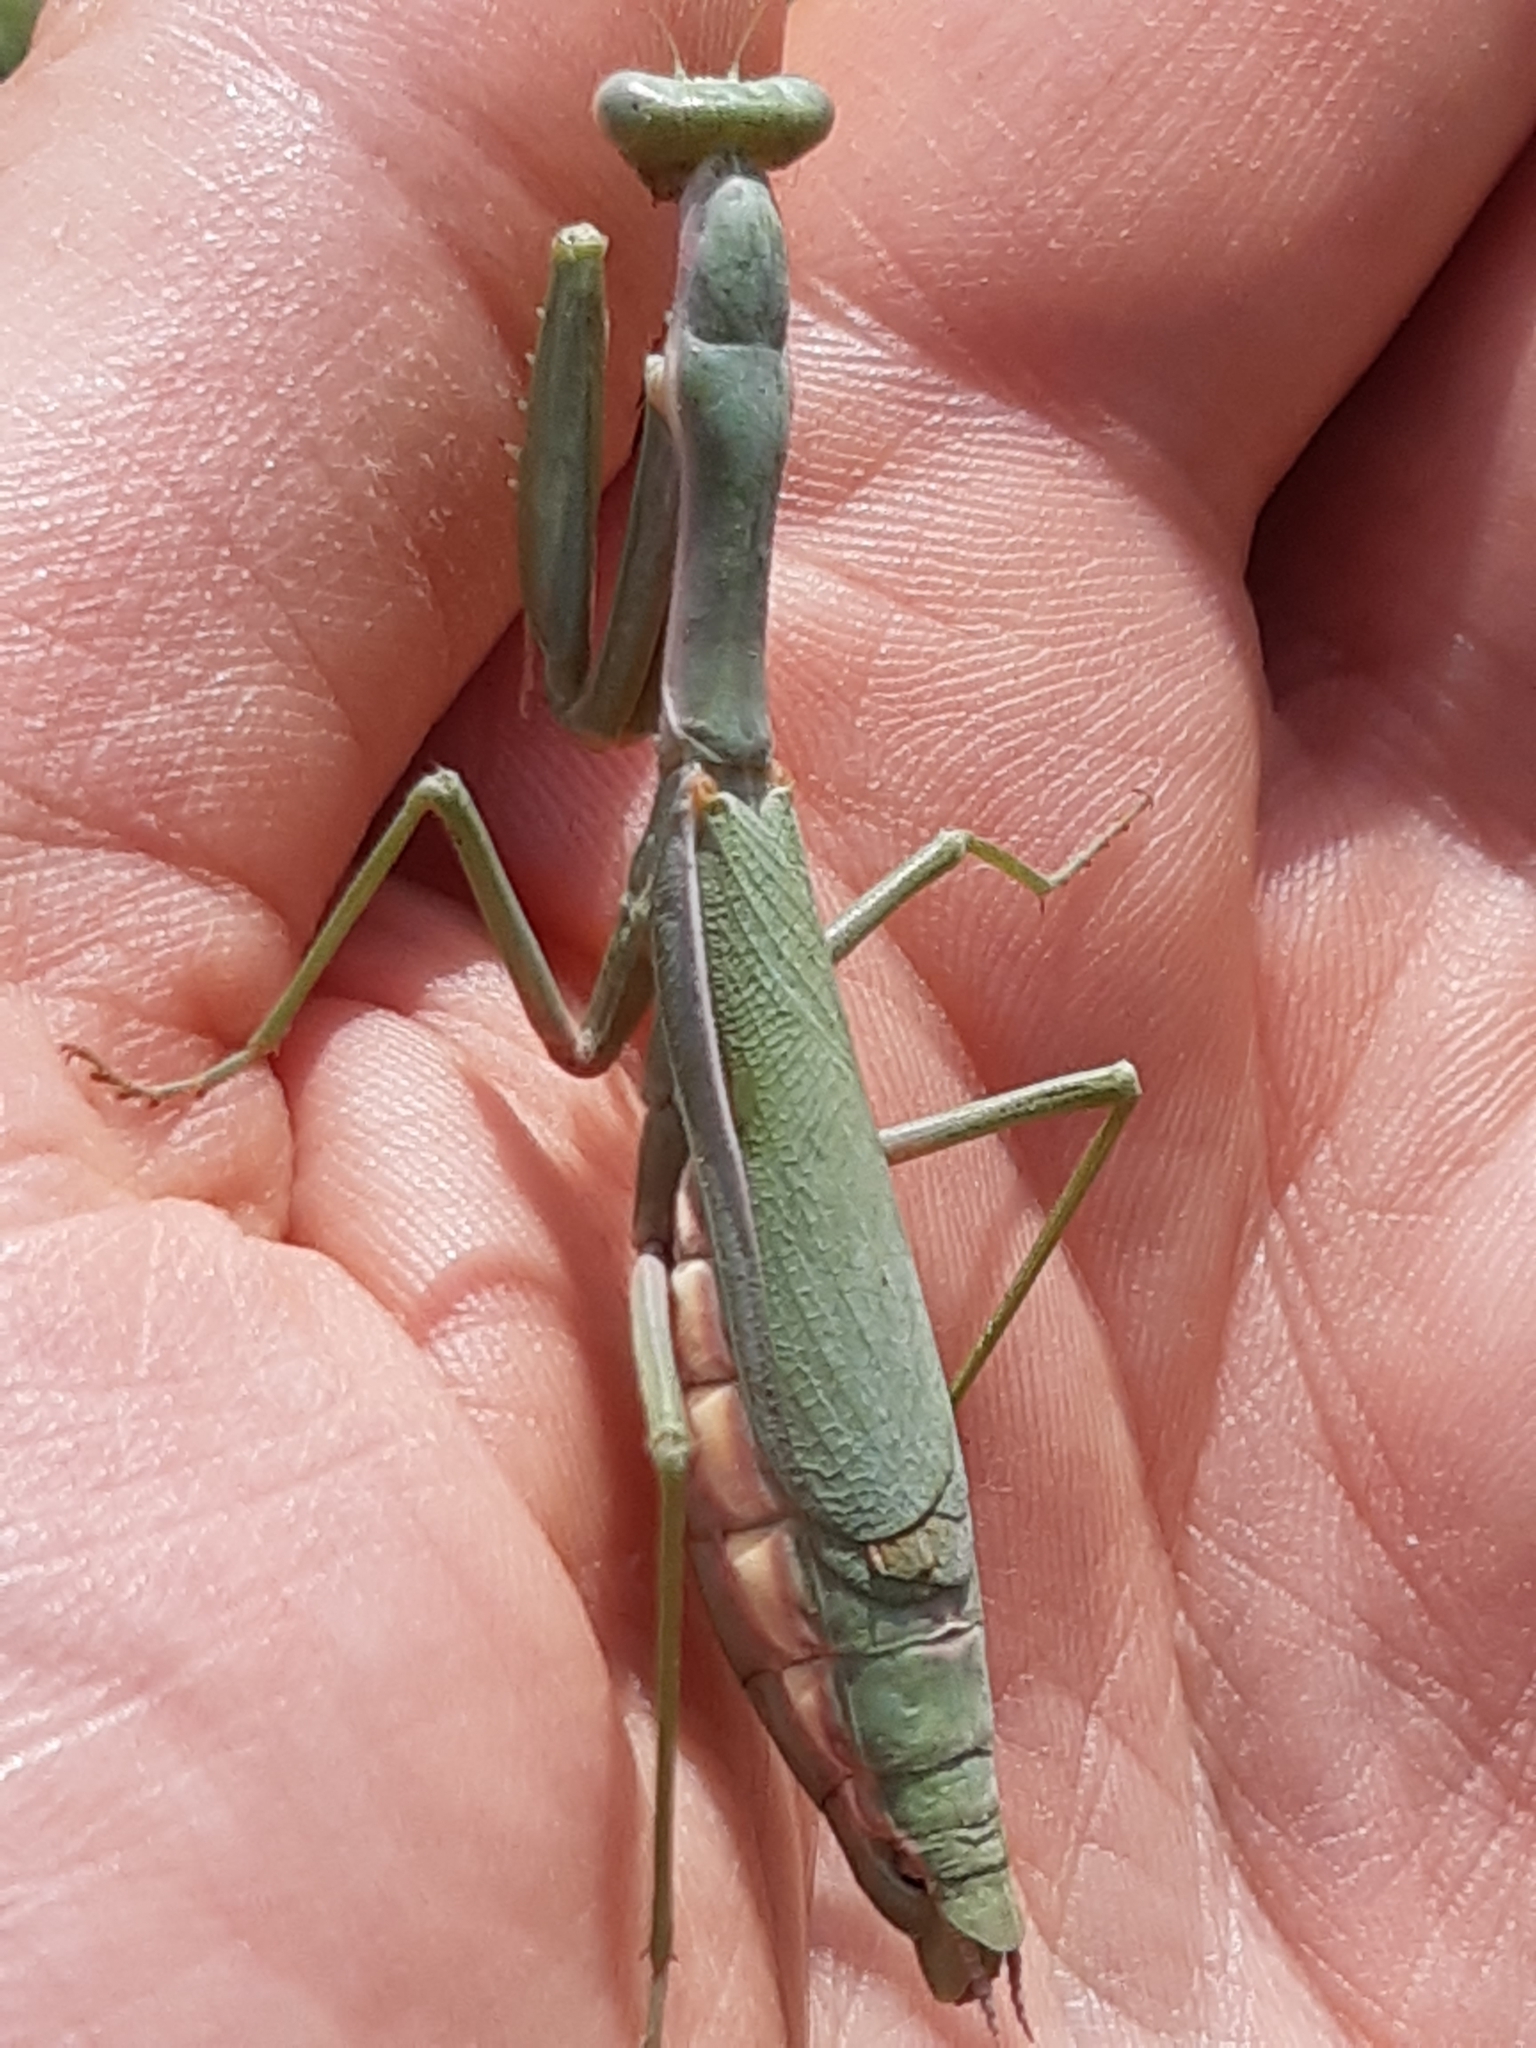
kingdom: Animalia
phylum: Arthropoda
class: Insecta
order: Mantodea
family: Eremiaphilidae
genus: Iris
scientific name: Iris oratoria
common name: Mediterranean mantis
